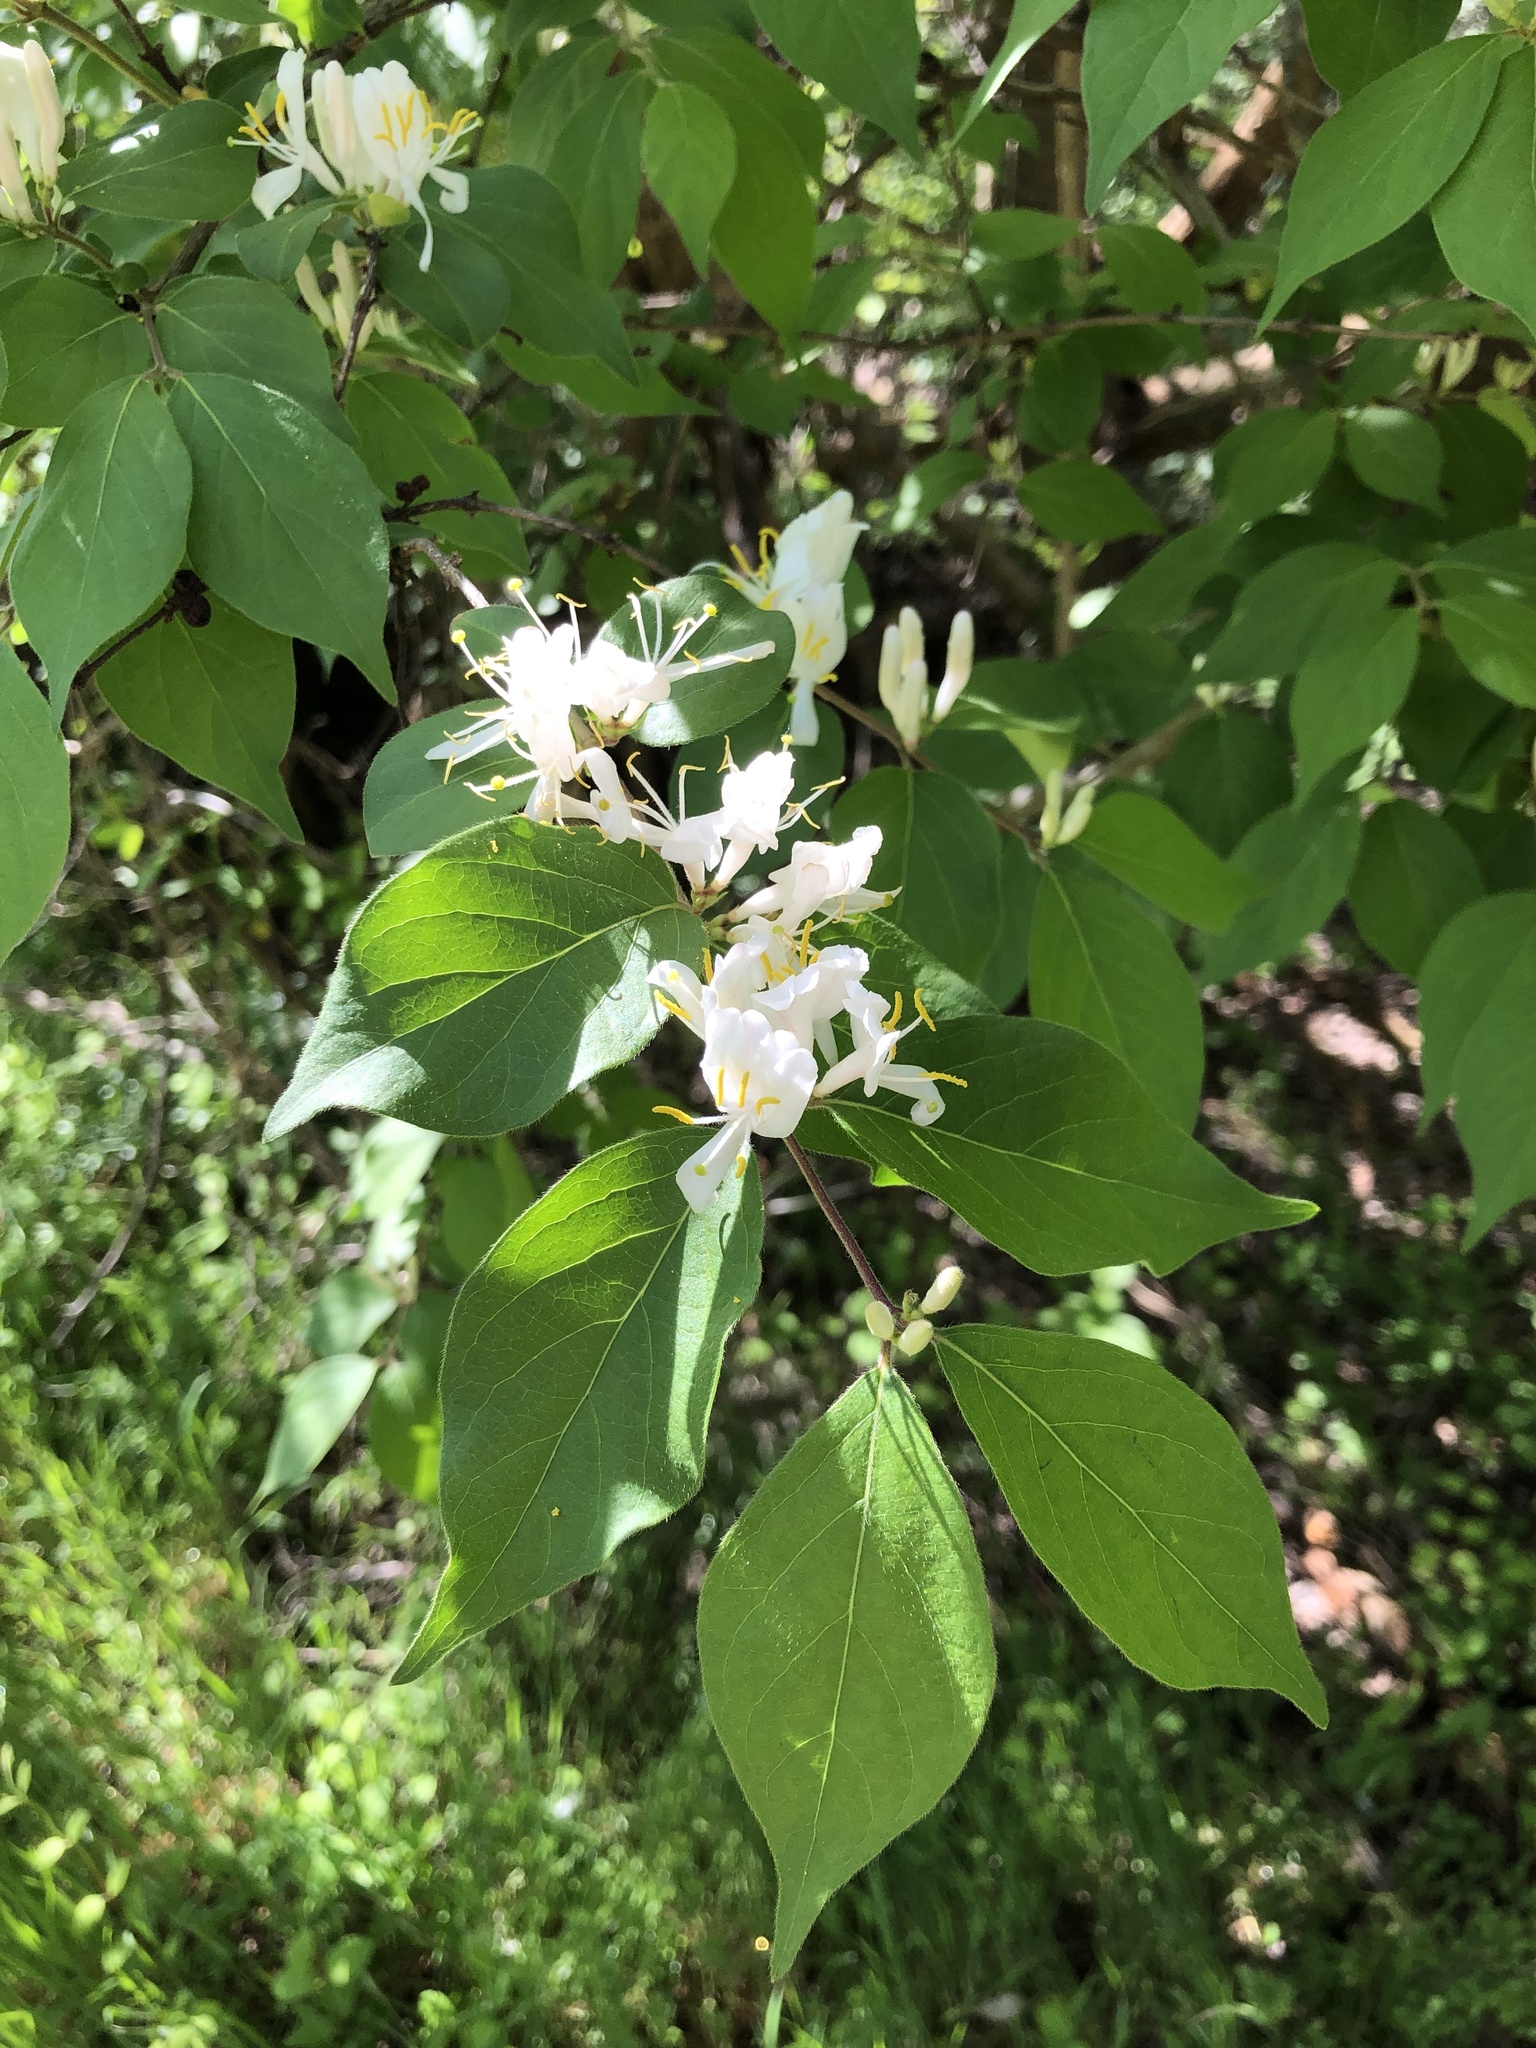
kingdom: Plantae
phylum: Tracheophyta
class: Magnoliopsida
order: Dipsacales
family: Caprifoliaceae
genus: Lonicera
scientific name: Lonicera maackii
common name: Amur honeysuckle
